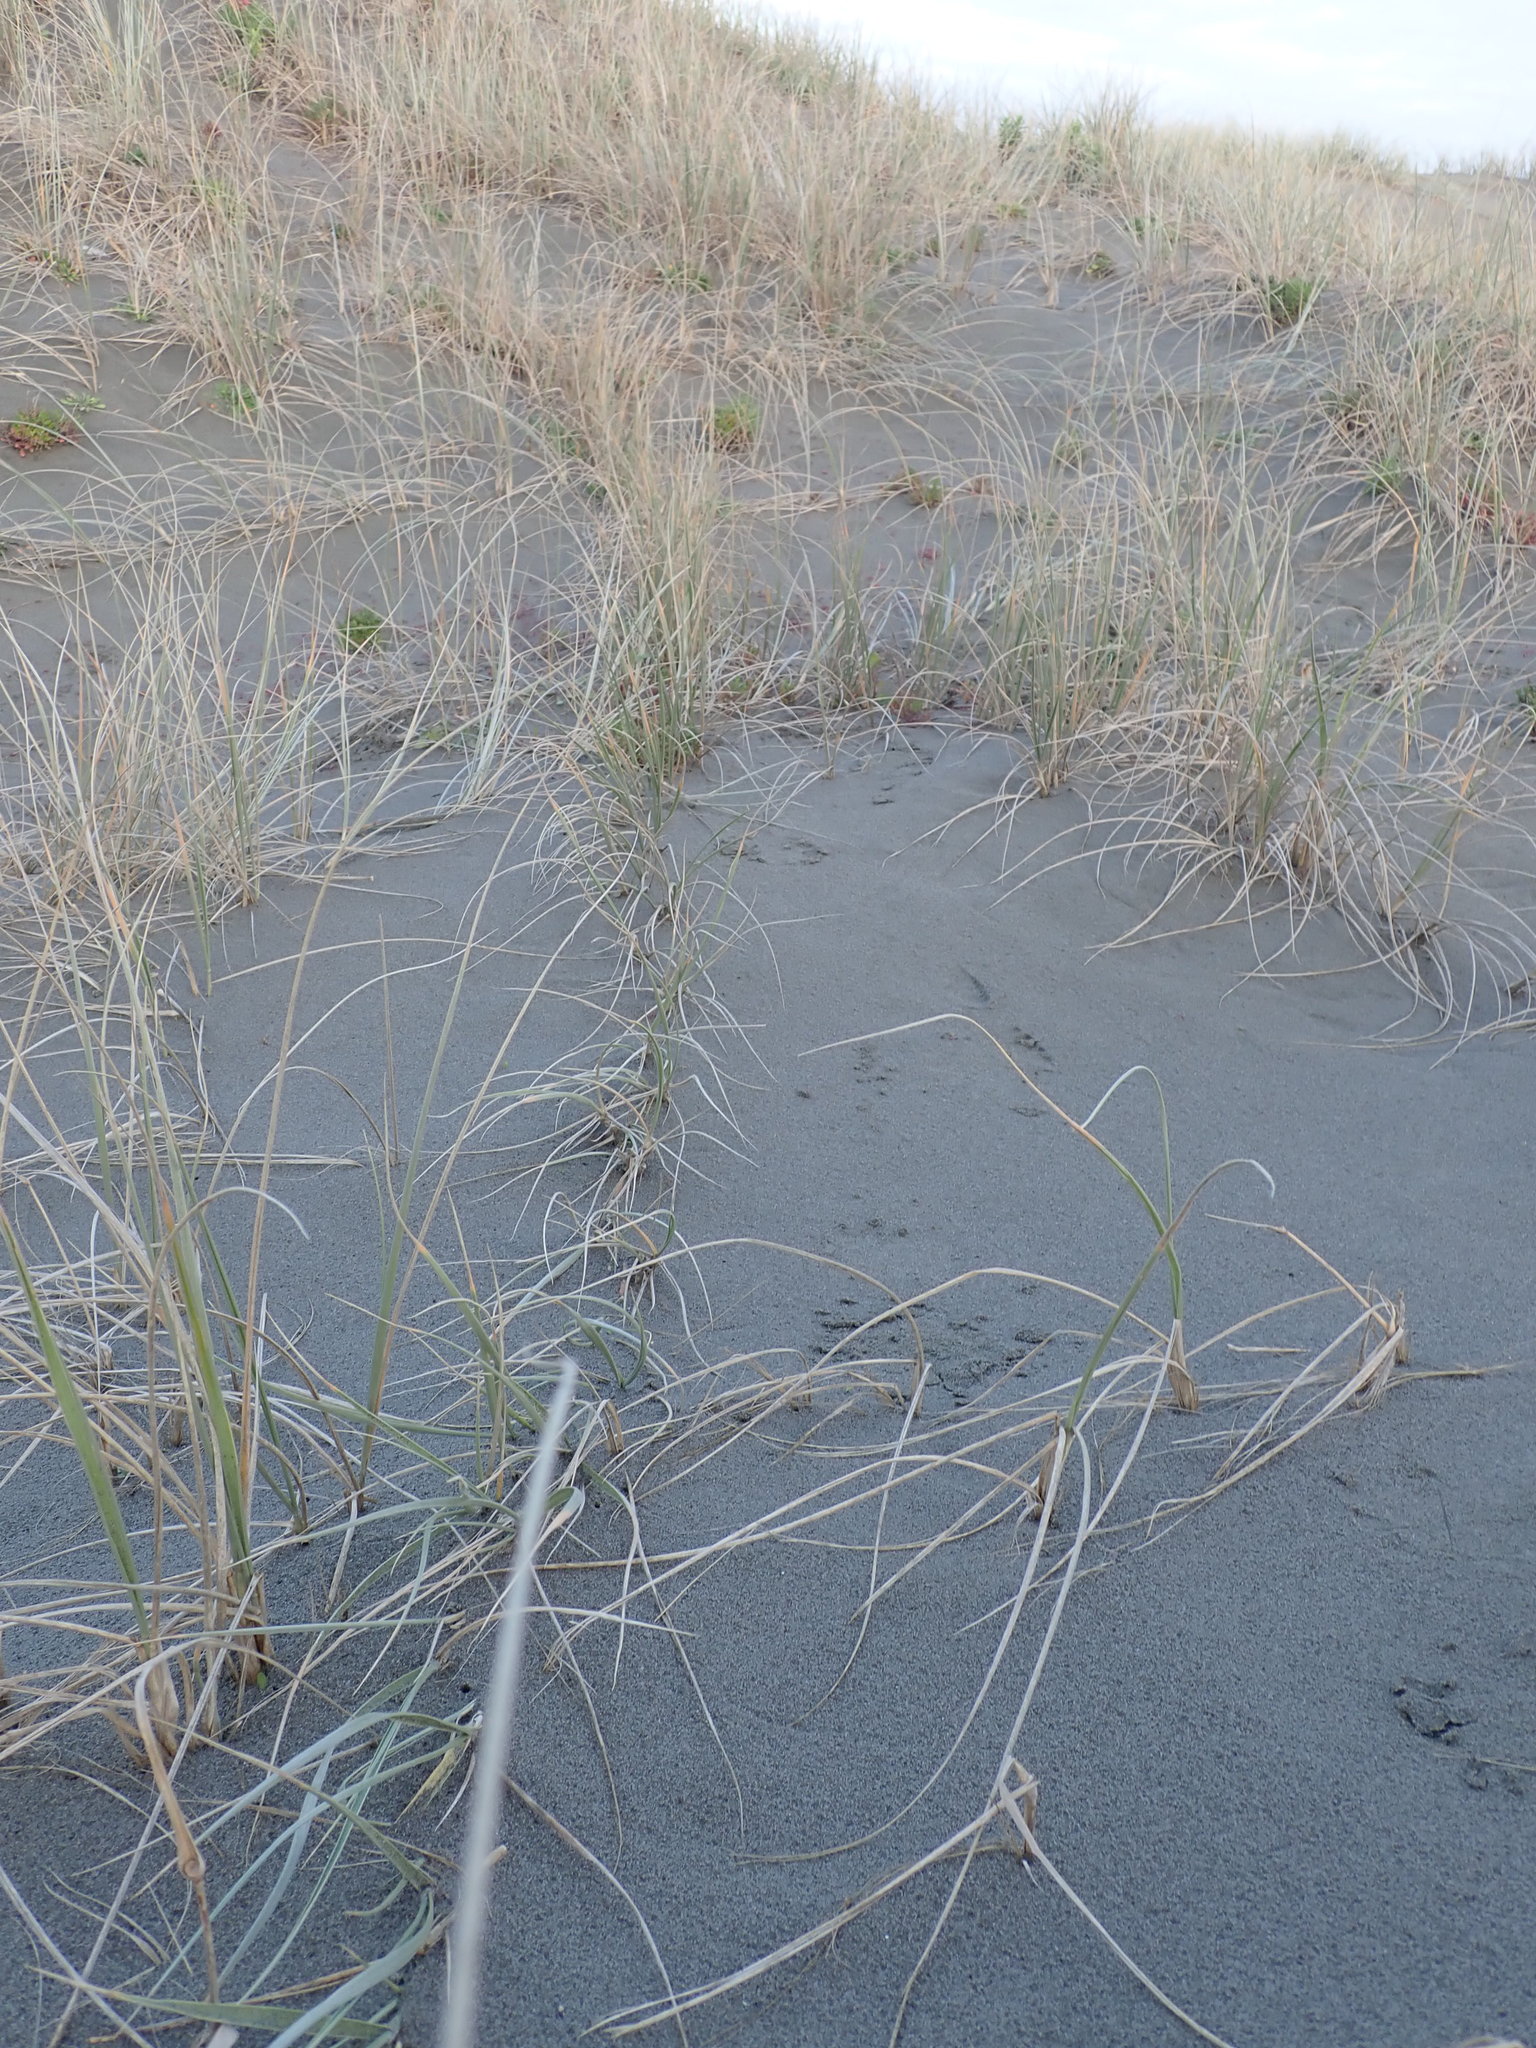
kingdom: Plantae
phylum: Tracheophyta
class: Liliopsida
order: Poales
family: Poaceae
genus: Spinifex
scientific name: Spinifex sericeus
